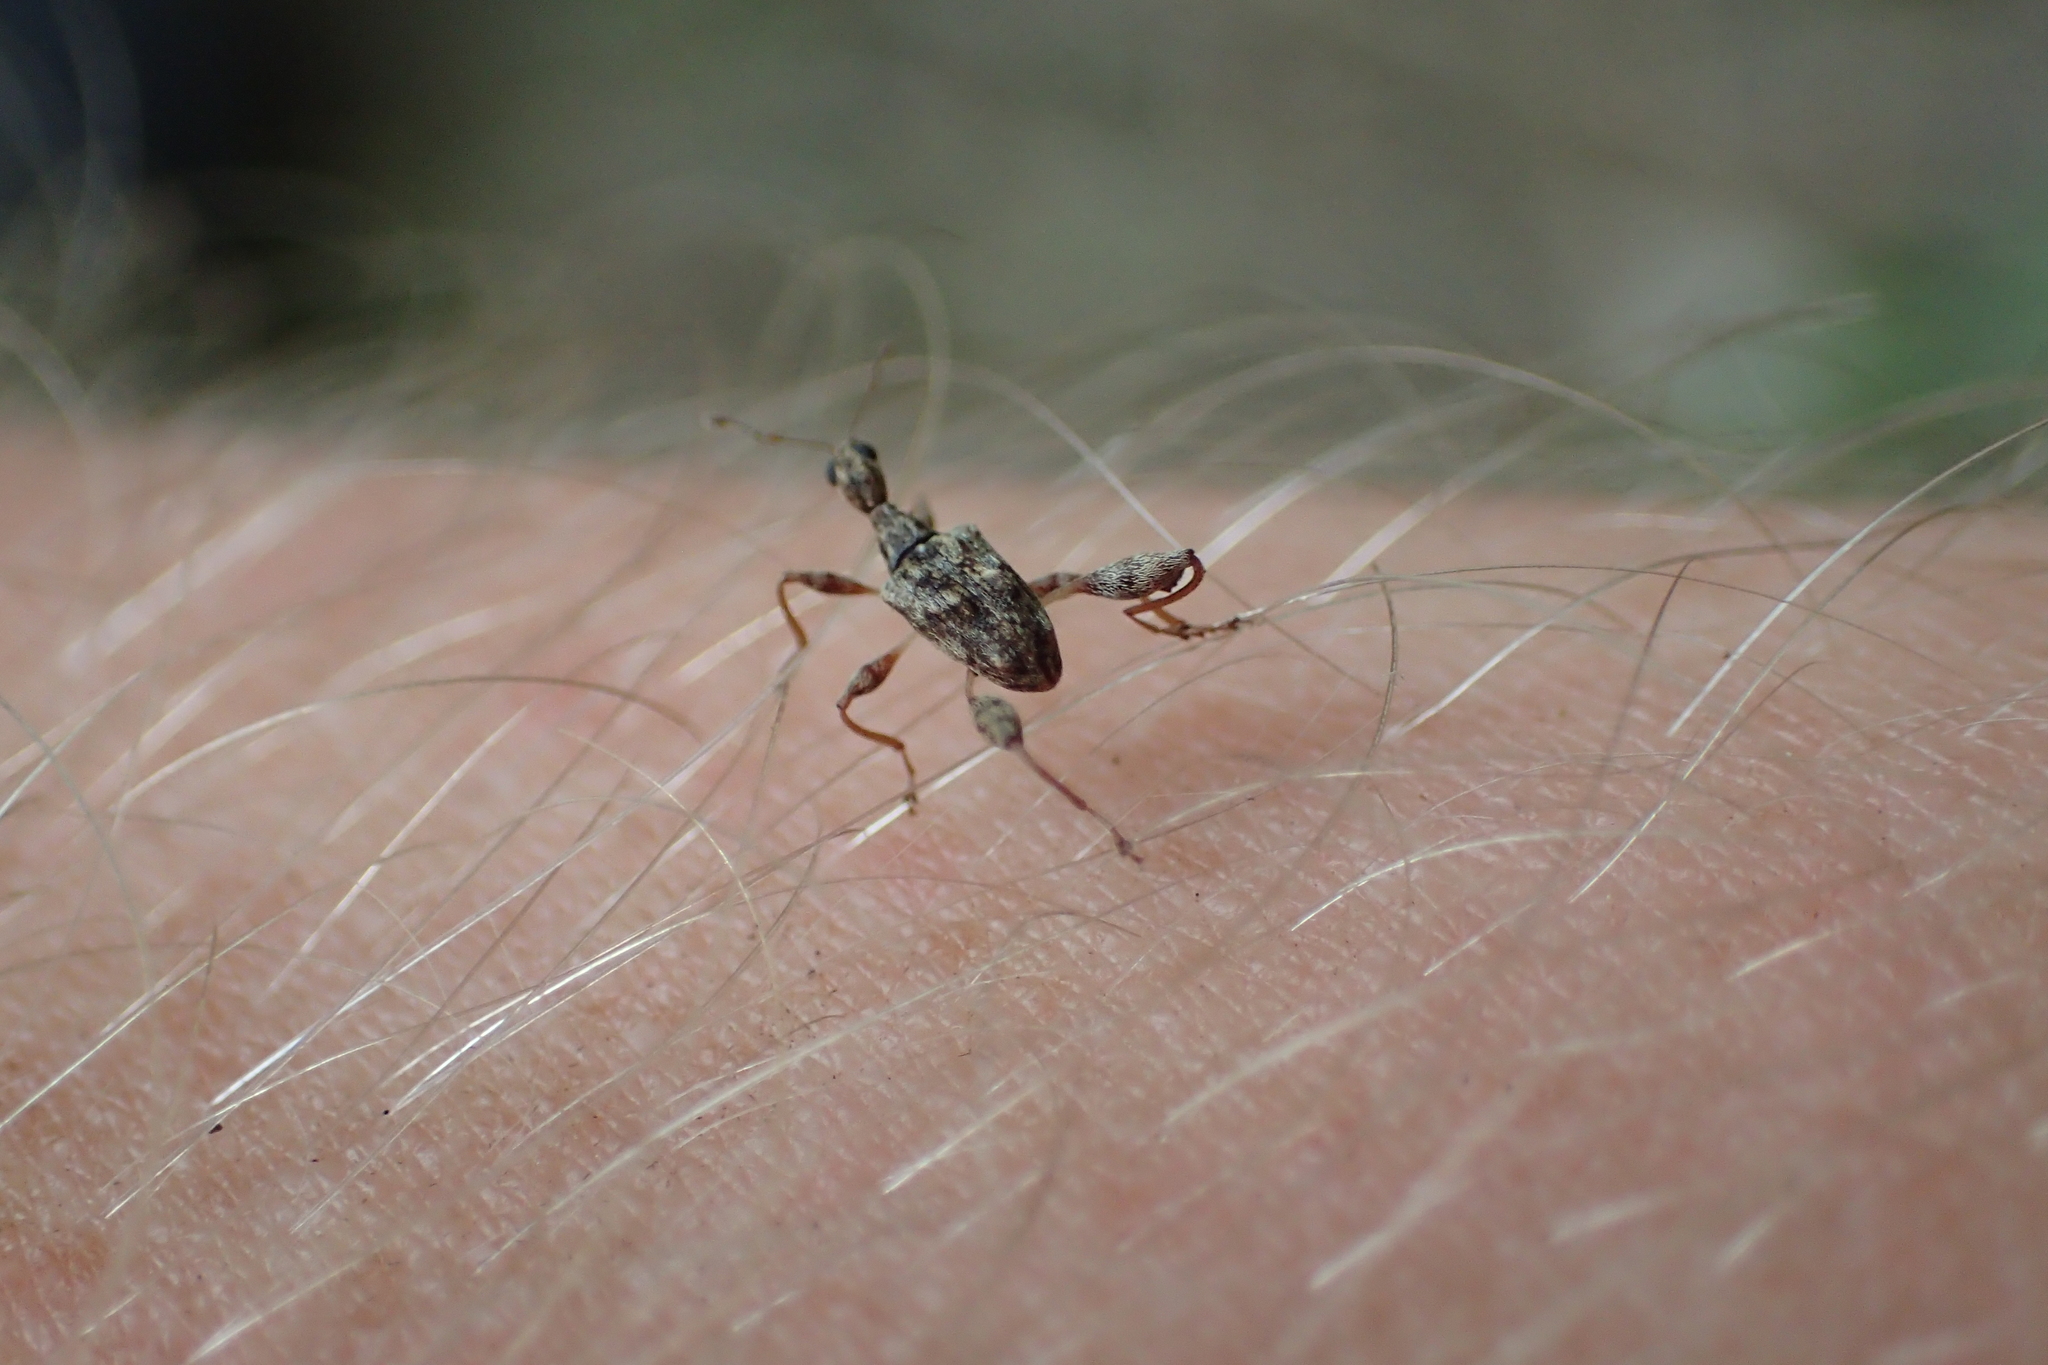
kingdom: Animalia
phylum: Arthropoda
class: Insecta
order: Coleoptera
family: Curculionidae
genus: Stephanorhynchus
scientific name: Stephanorhynchus lawsoni
